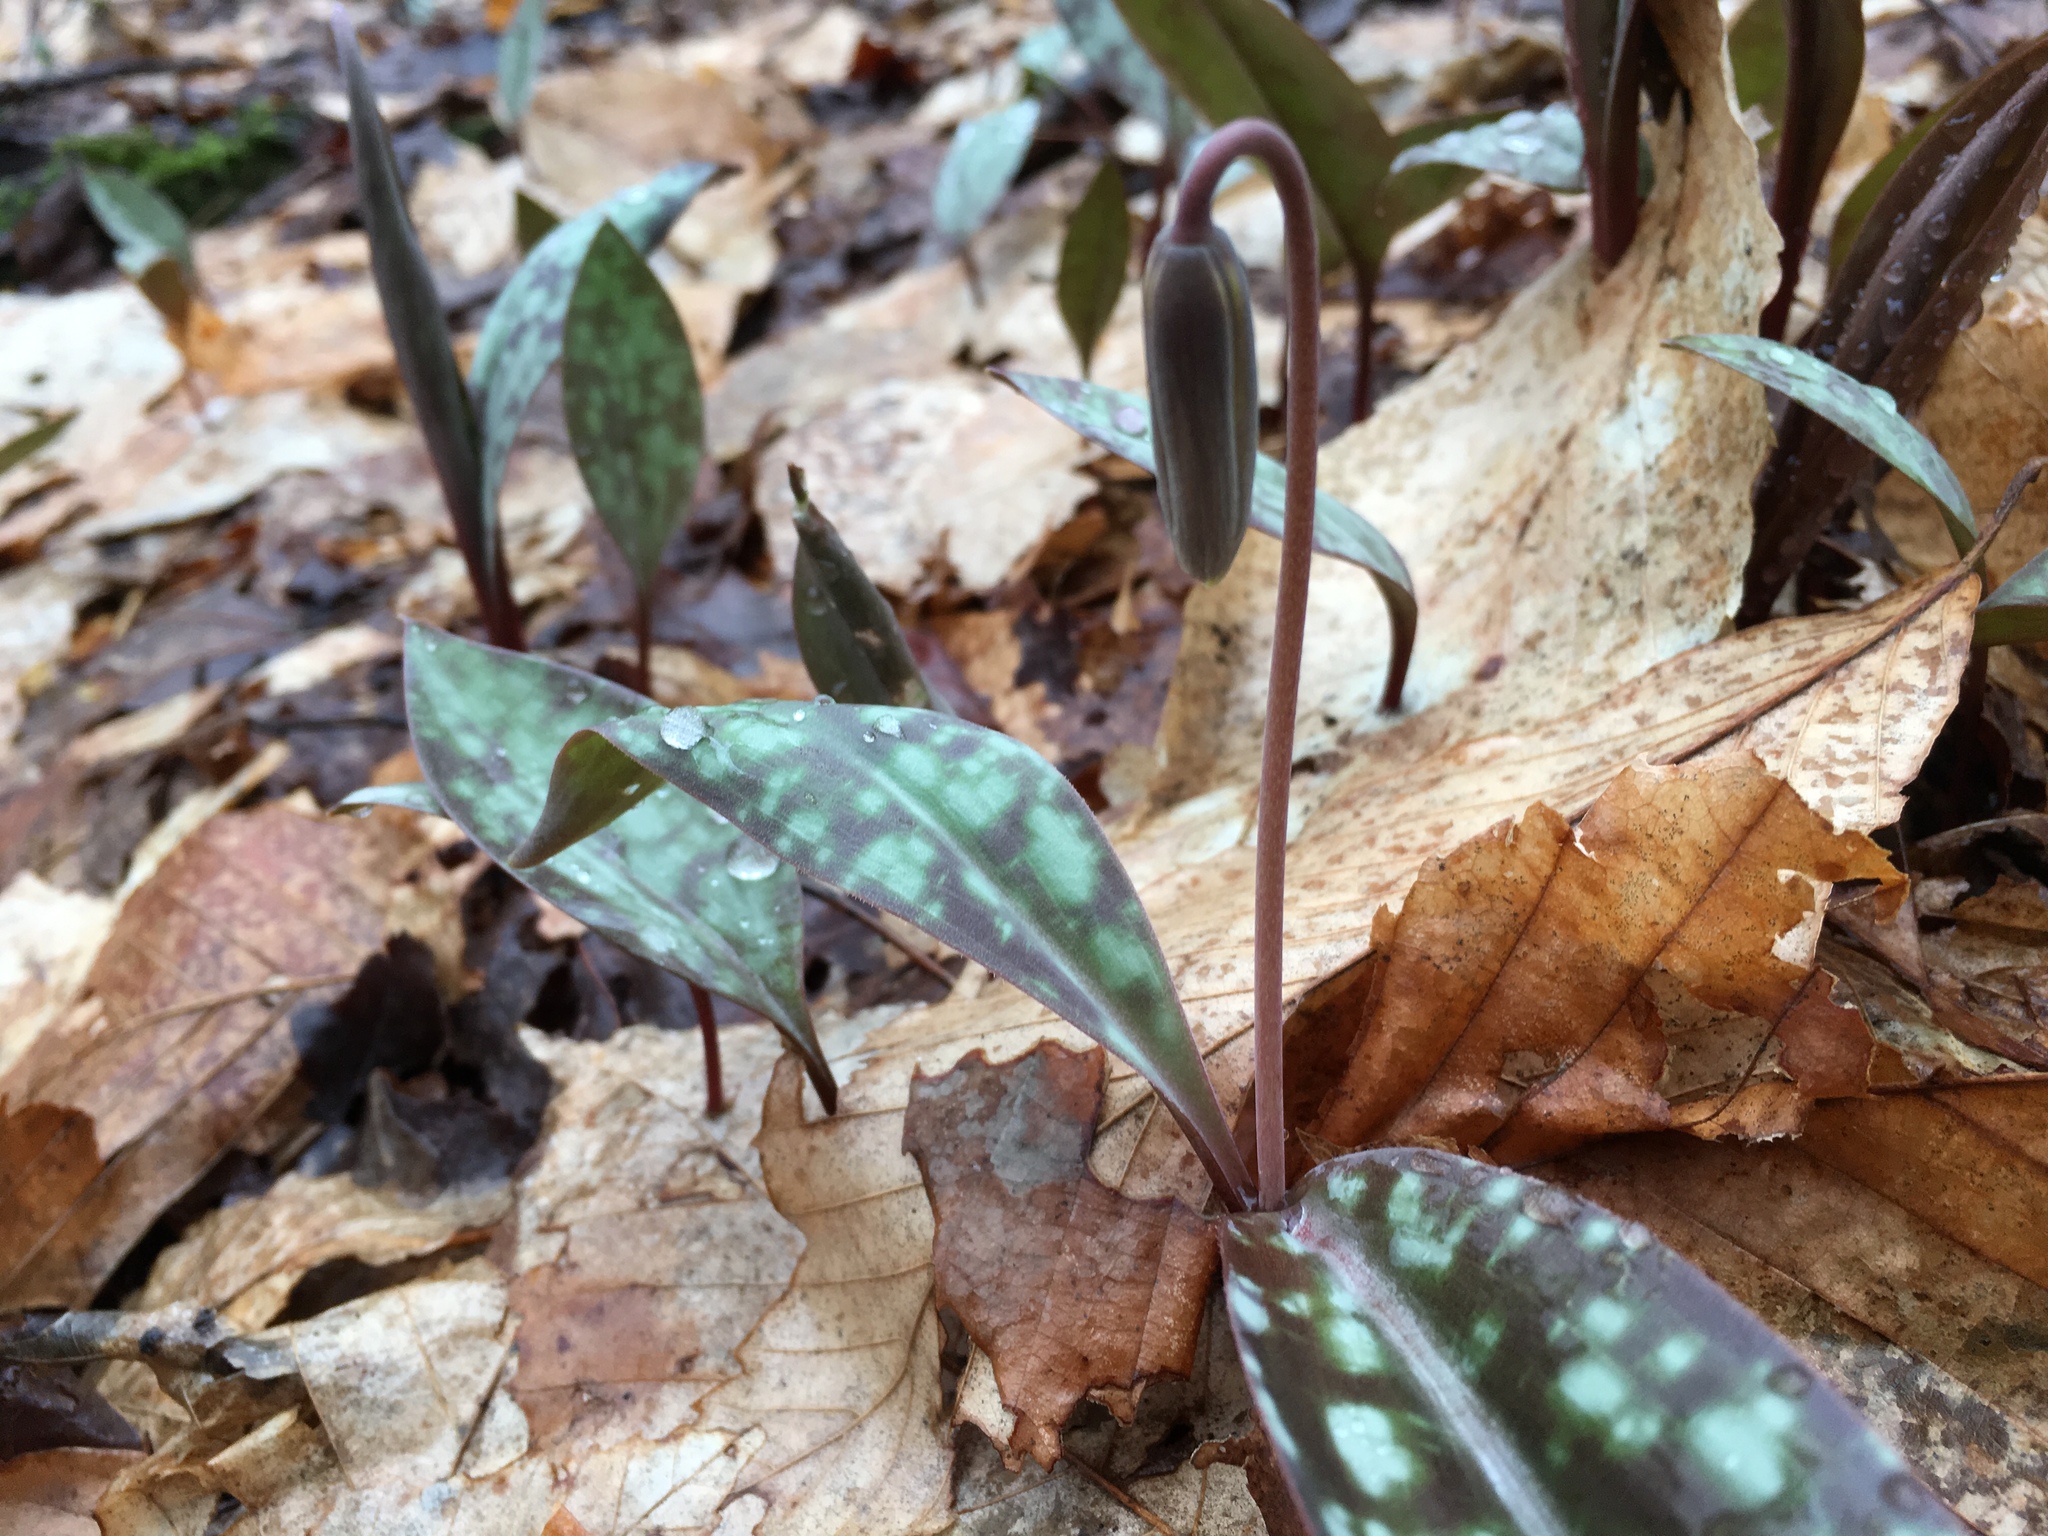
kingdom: Plantae
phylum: Tracheophyta
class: Liliopsida
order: Liliales
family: Liliaceae
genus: Erythronium
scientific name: Erythronium americanum
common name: Yellow adder's-tongue
